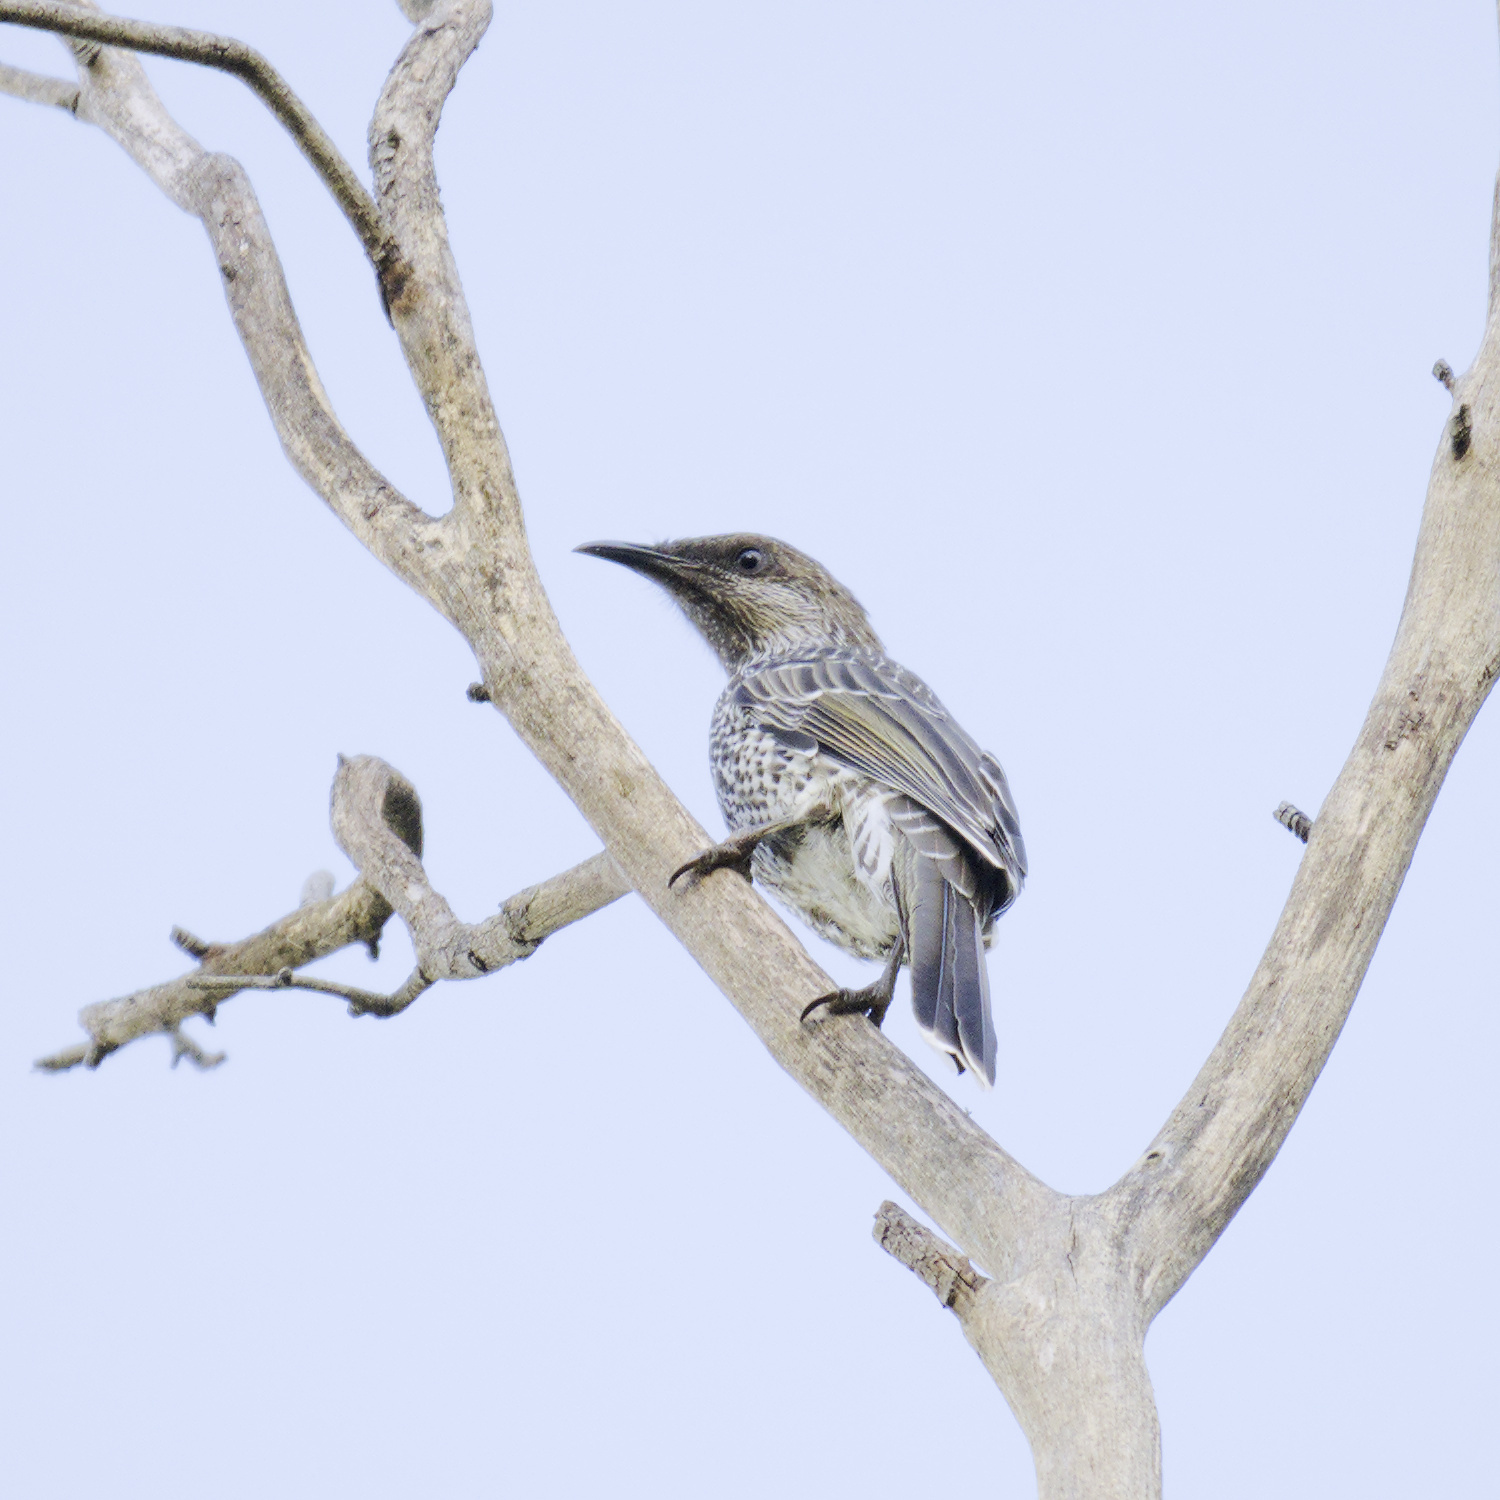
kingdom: Animalia
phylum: Chordata
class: Aves
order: Passeriformes
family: Meliphagidae
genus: Anthochaera
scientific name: Anthochaera chrysoptera
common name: Little wattlebird
